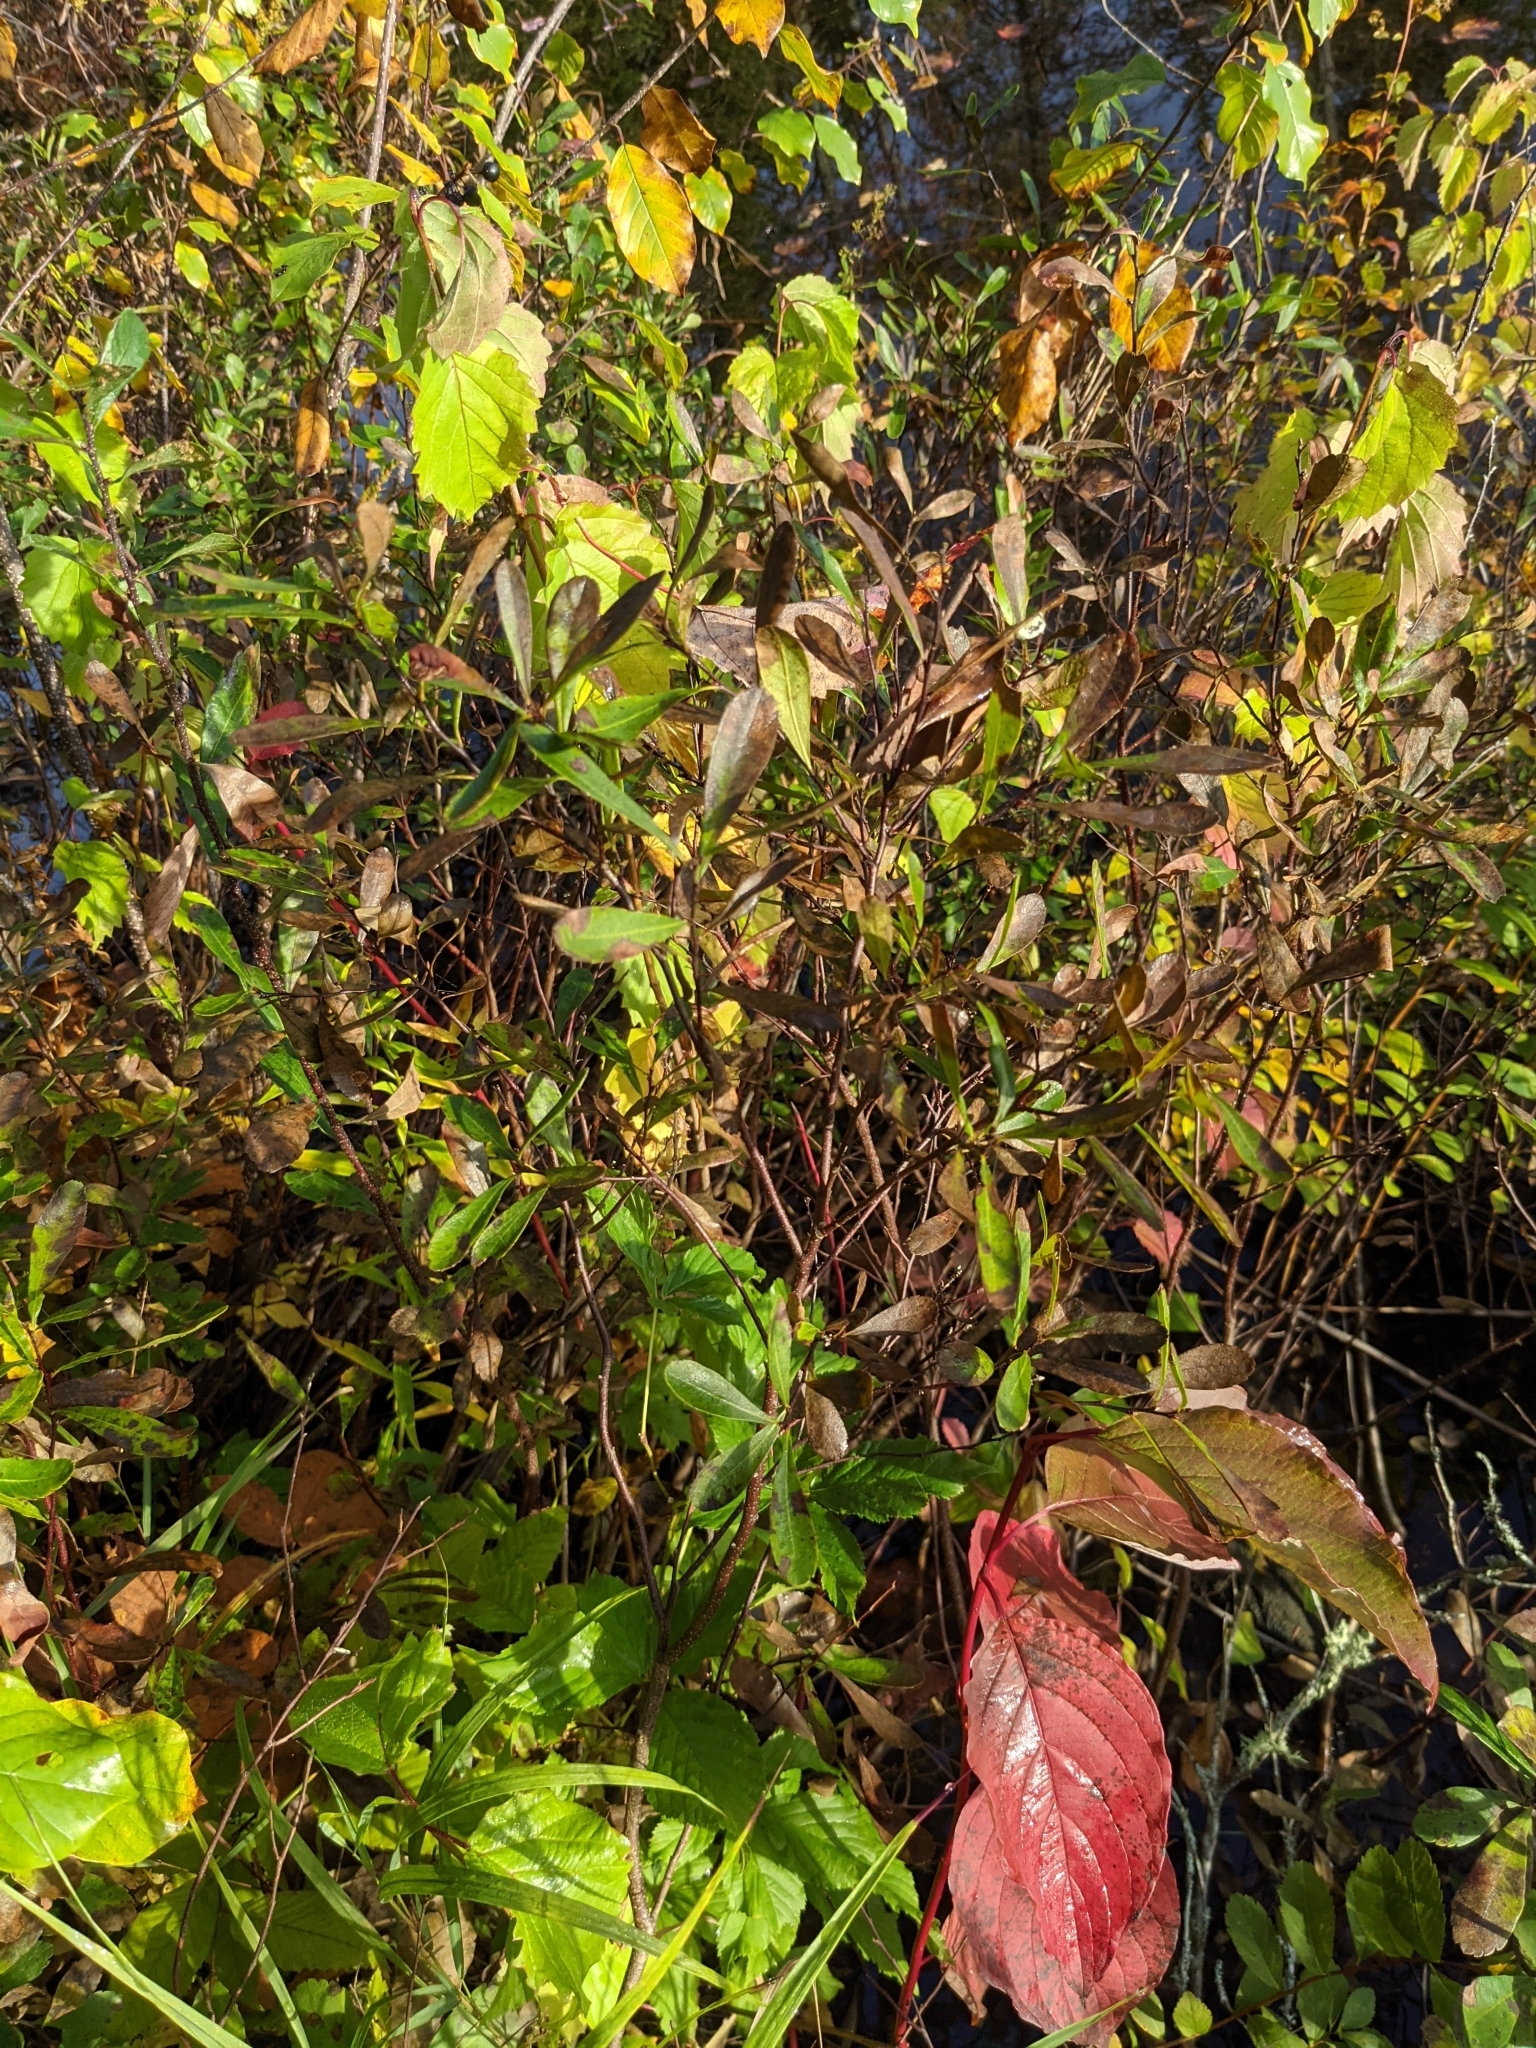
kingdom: Plantae
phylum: Tracheophyta
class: Magnoliopsida
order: Fagales
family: Myricaceae
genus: Myrica
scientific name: Myrica gale
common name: Sweet gale
